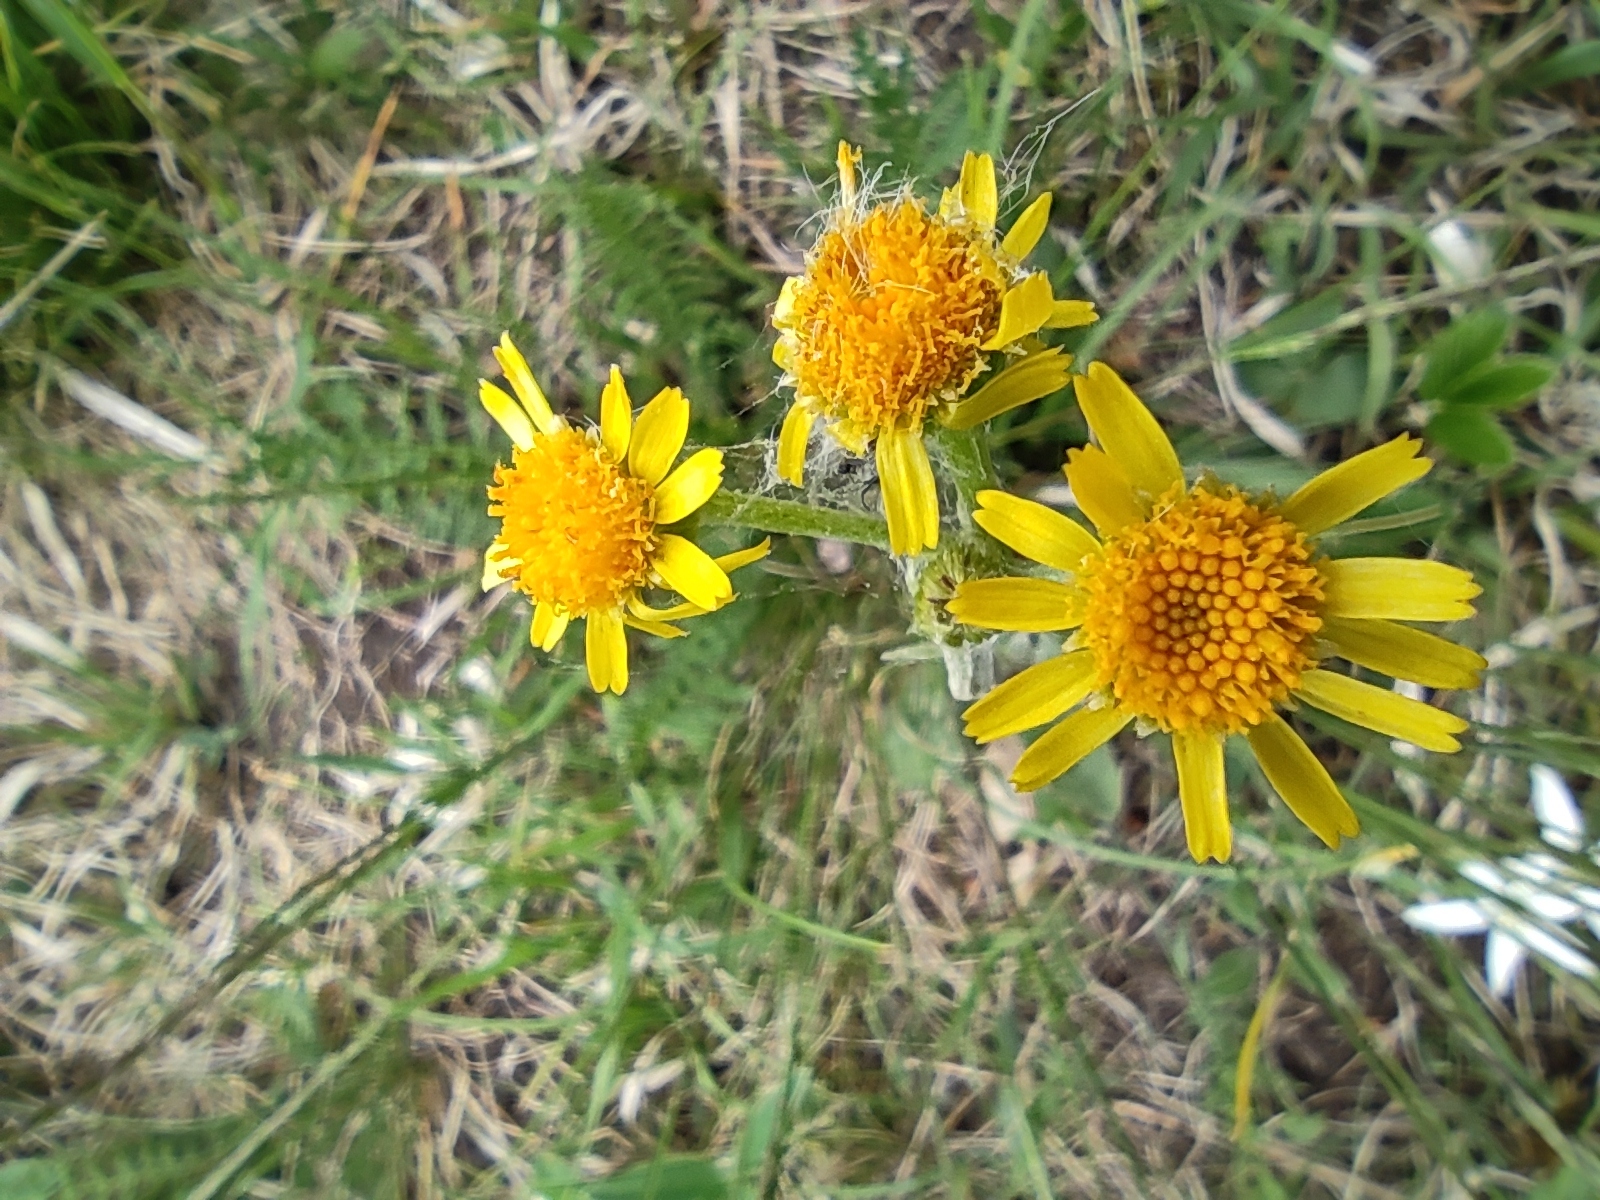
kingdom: Plantae
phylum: Tracheophyta
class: Magnoliopsida
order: Asterales
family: Asteraceae
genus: Tephroseris
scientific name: Tephroseris integrifolia
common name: Field fleawort
